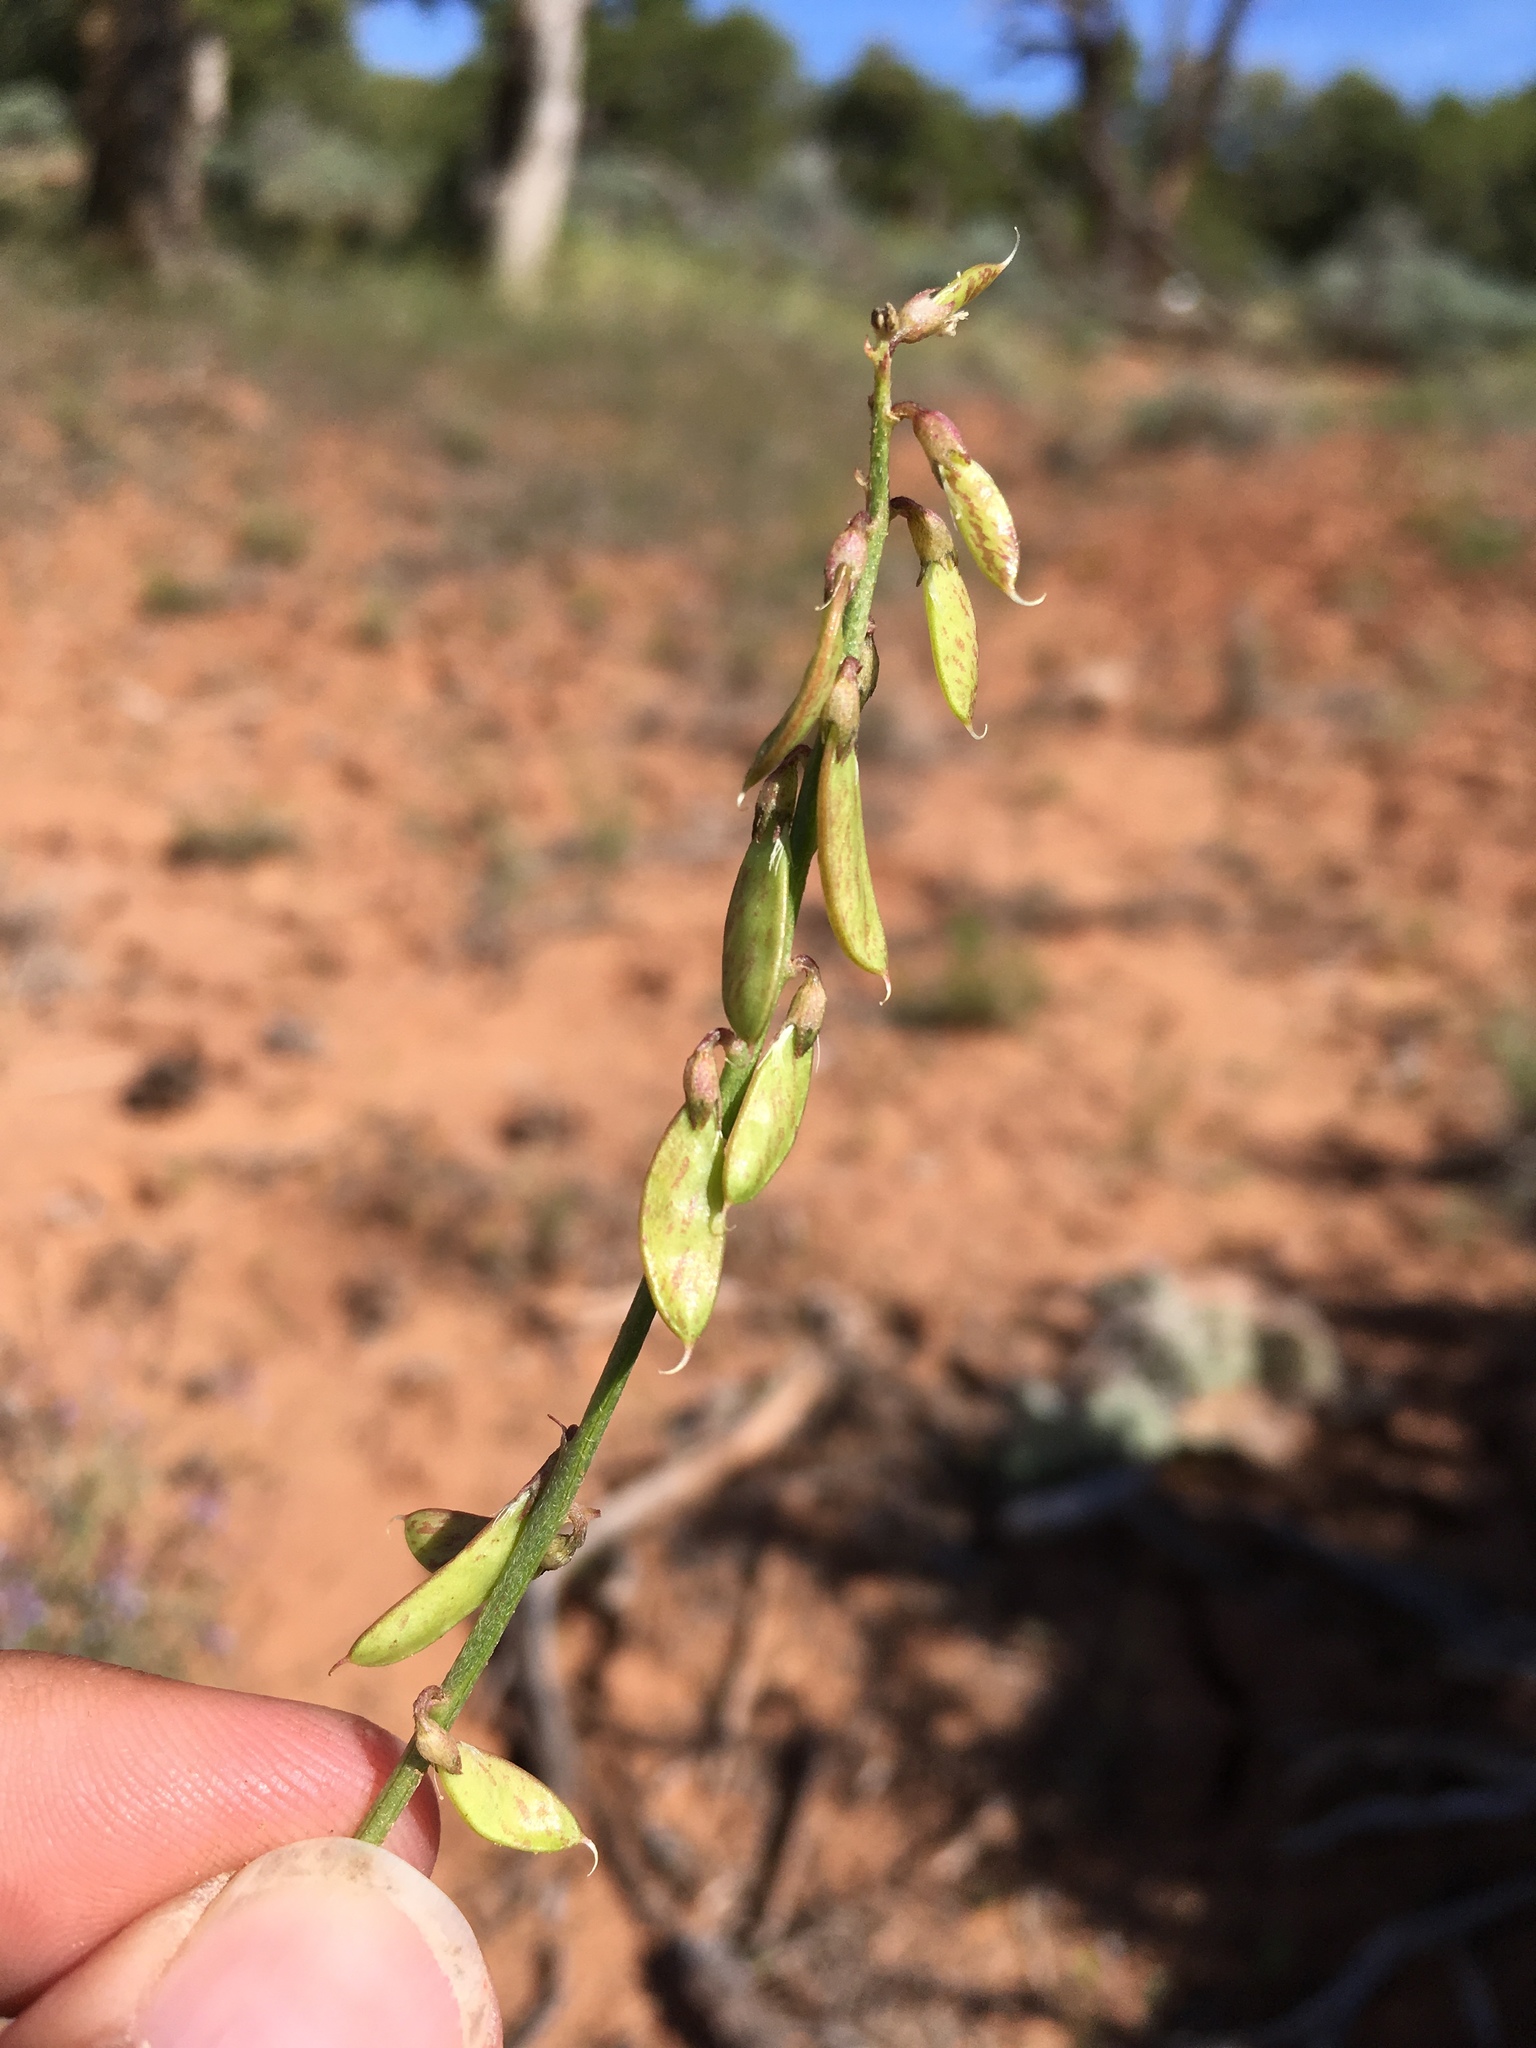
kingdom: Plantae
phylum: Tracheophyta
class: Magnoliopsida
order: Fabales
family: Fabaceae
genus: Astragalus
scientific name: Astragalus wingatanus
